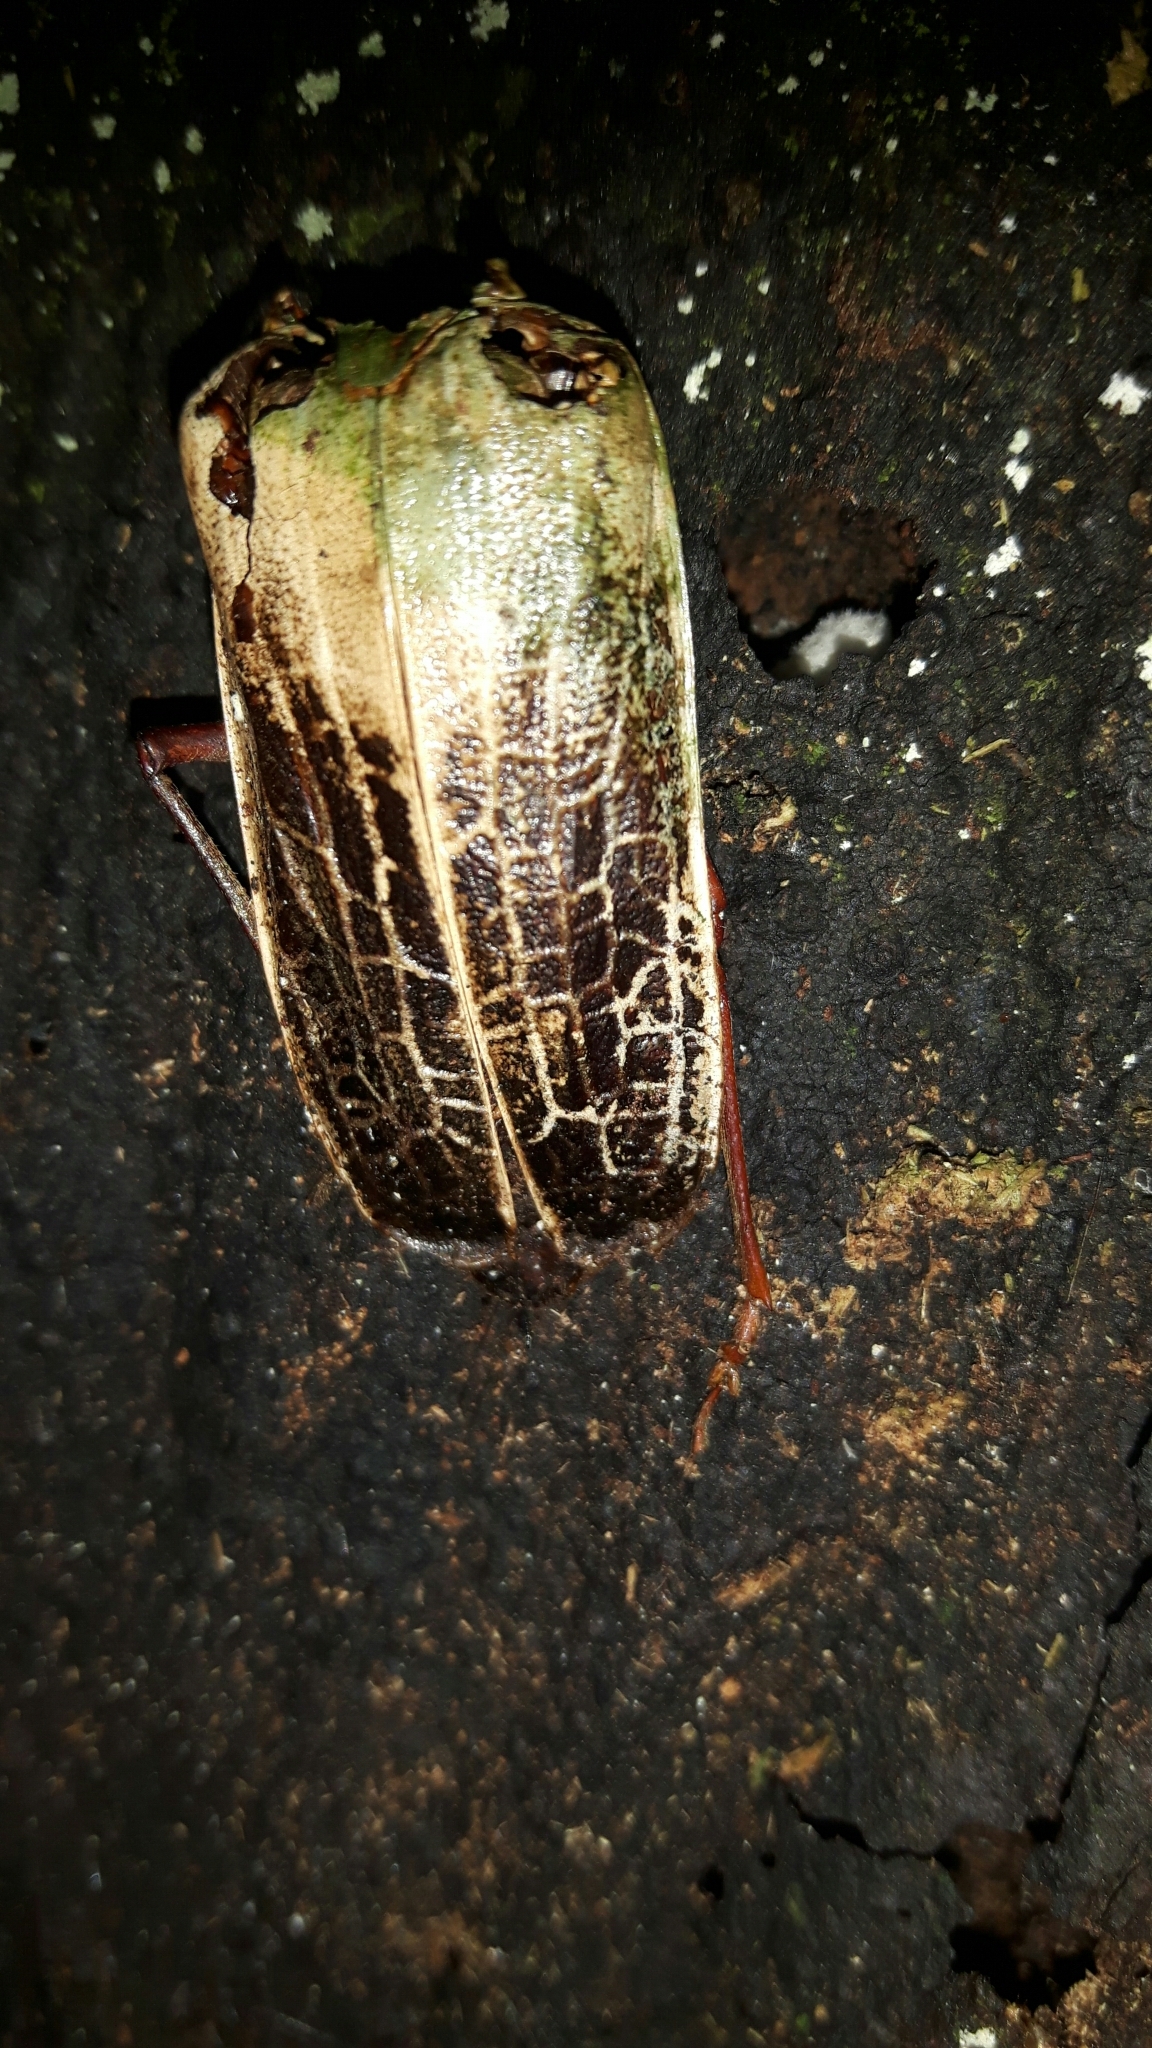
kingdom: Animalia
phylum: Arthropoda
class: Insecta
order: Coleoptera
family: Cerambycidae
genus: Prionoplus
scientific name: Prionoplus reticularis
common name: Huhu beetle
